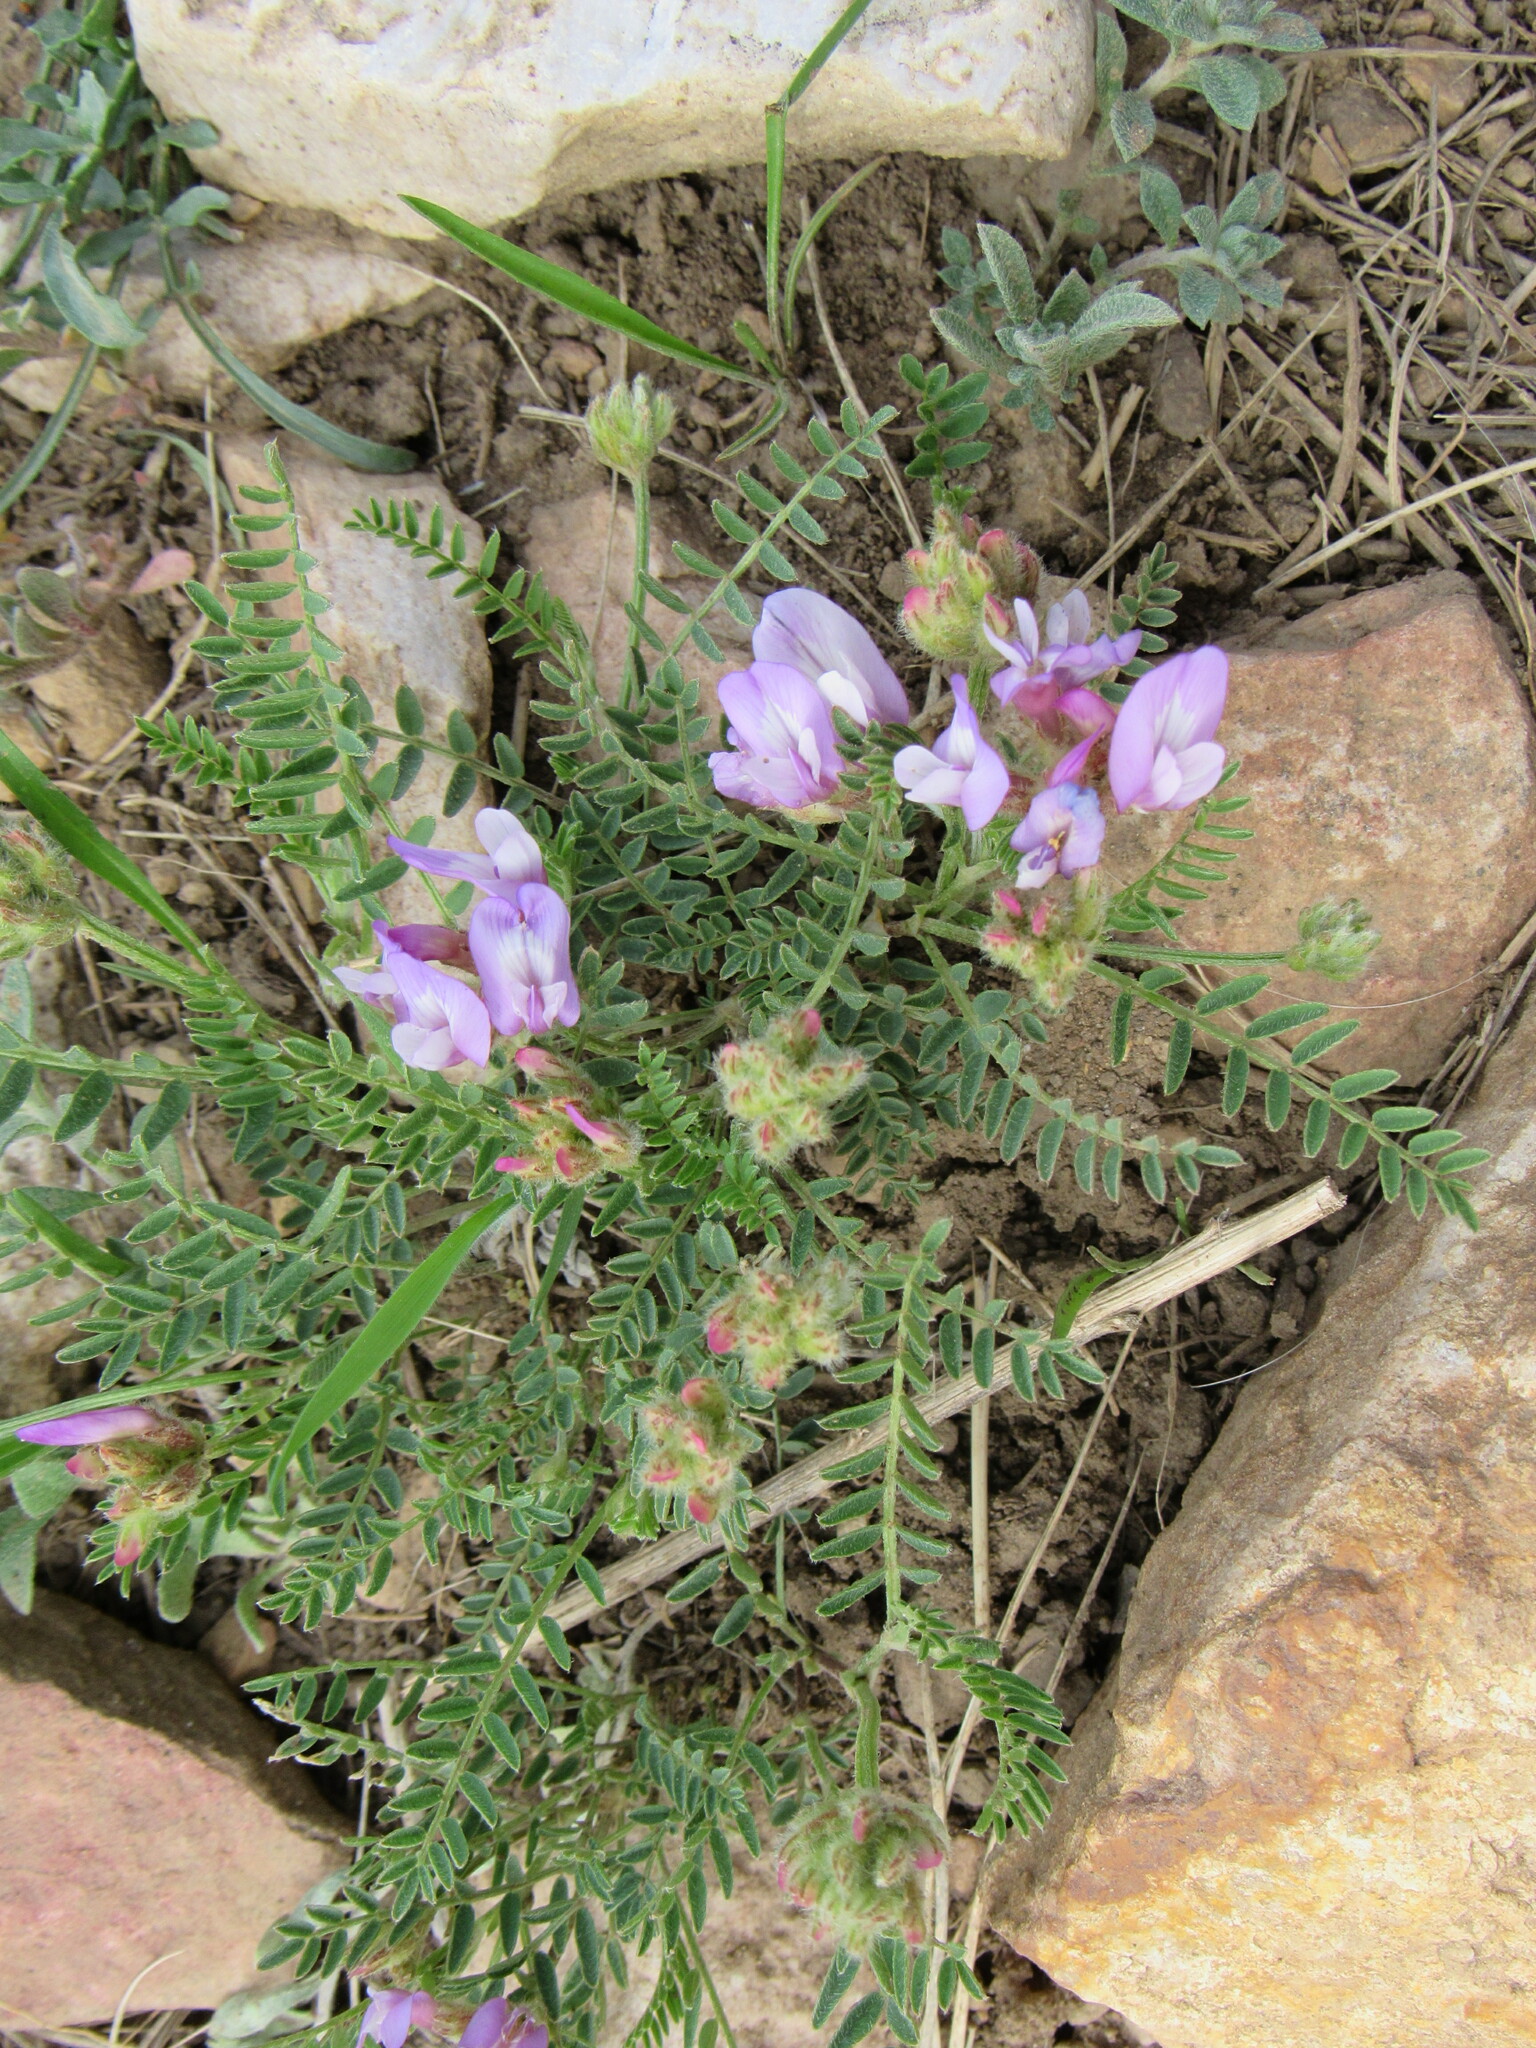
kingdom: Plantae
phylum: Tracheophyta
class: Magnoliopsida
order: Fabales
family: Fabaceae
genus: Astragalus
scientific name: Astragalus agrestis
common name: Field milk-vetch
